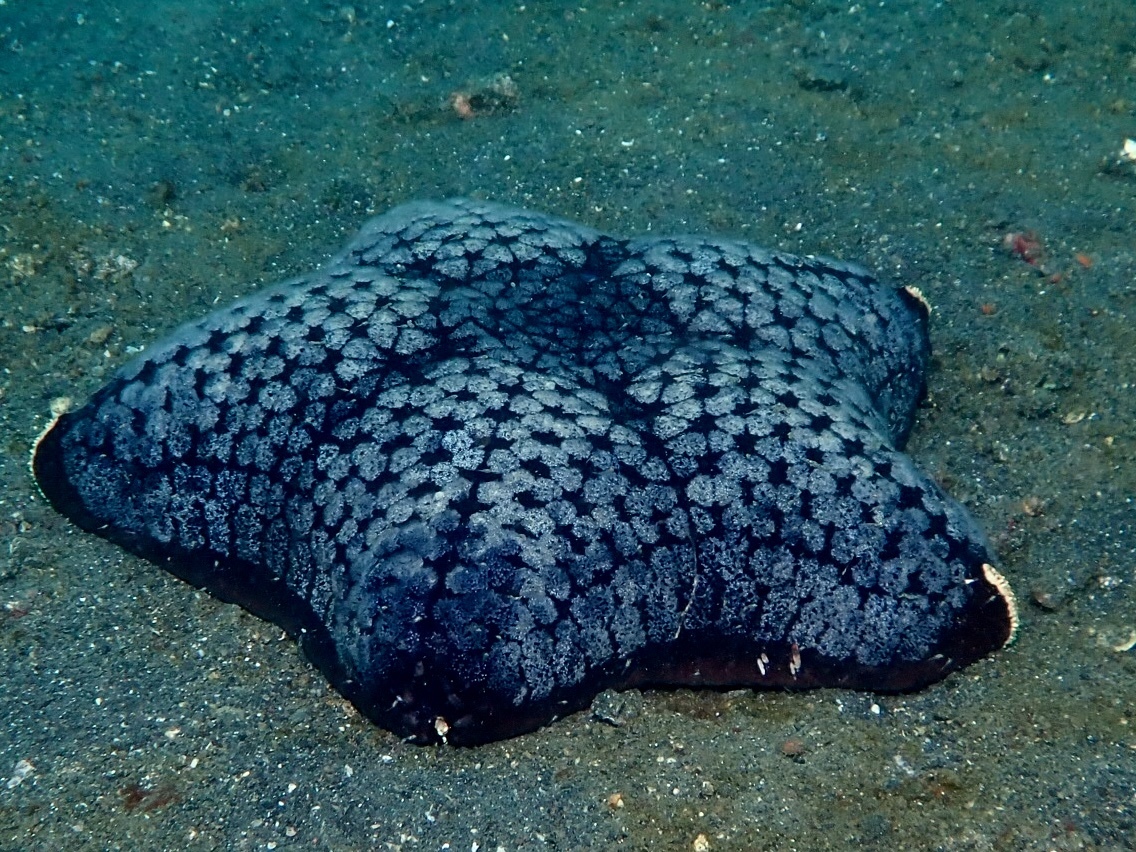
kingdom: Animalia
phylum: Echinodermata
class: Asteroidea
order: Valvatida
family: Oreasteridae
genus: Halityle
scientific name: Halityle regularis
